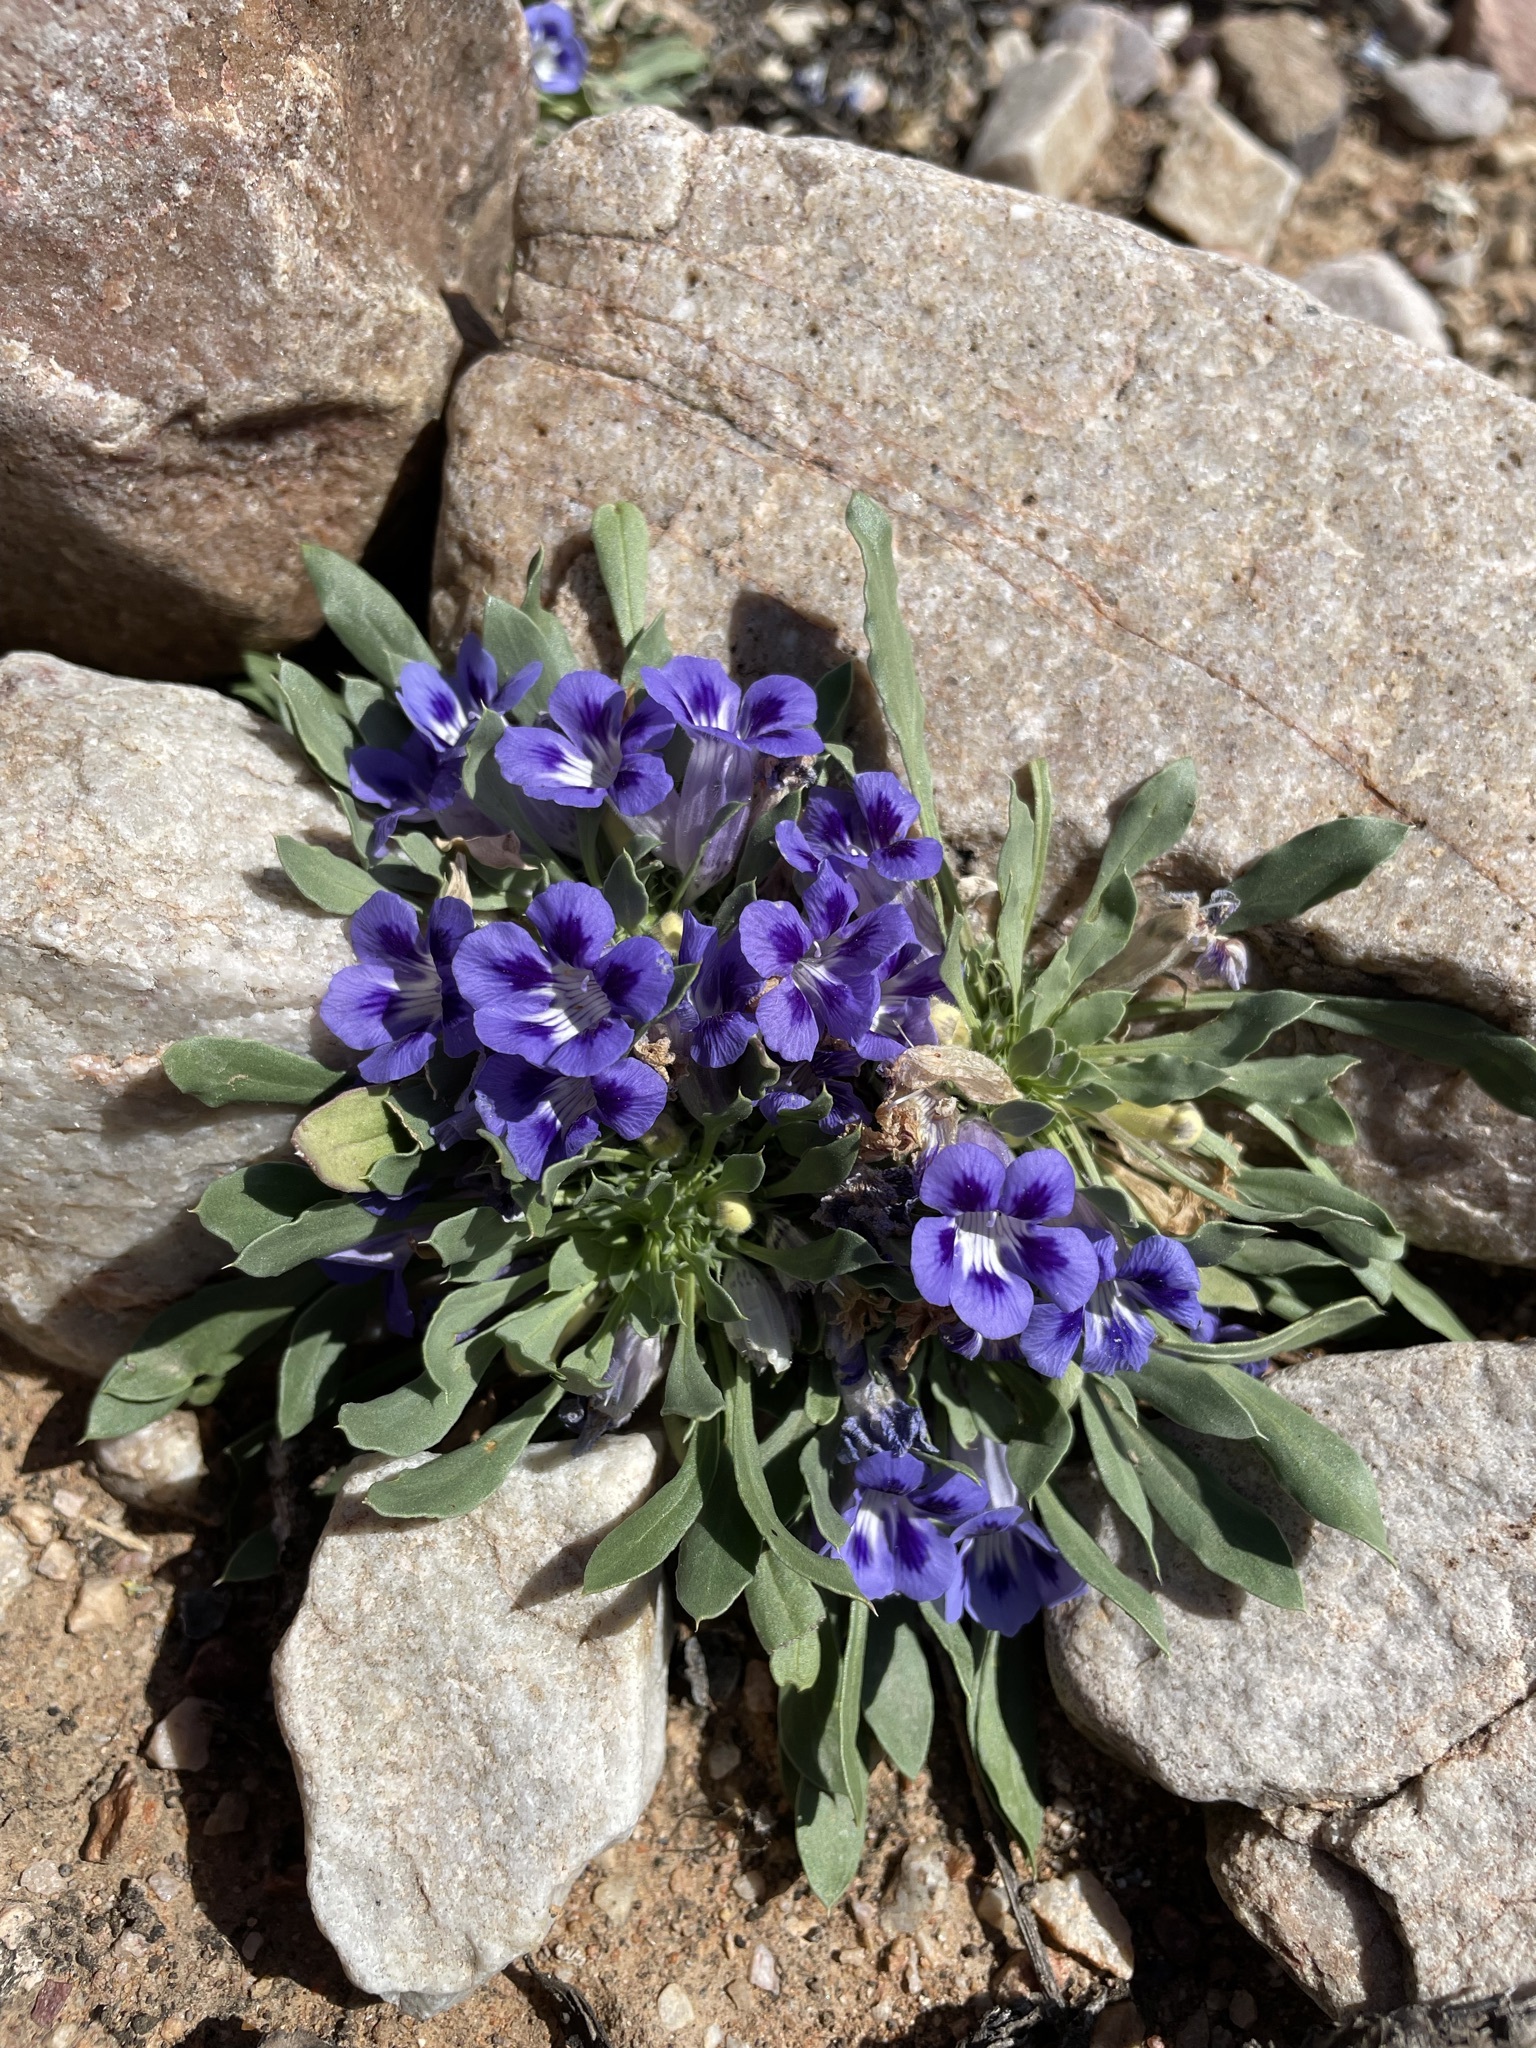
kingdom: Plantae
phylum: Tracheophyta
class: Magnoliopsida
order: Lamiales
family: Scrophulariaceae
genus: Aptosimum
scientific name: Aptosimum indivisum
